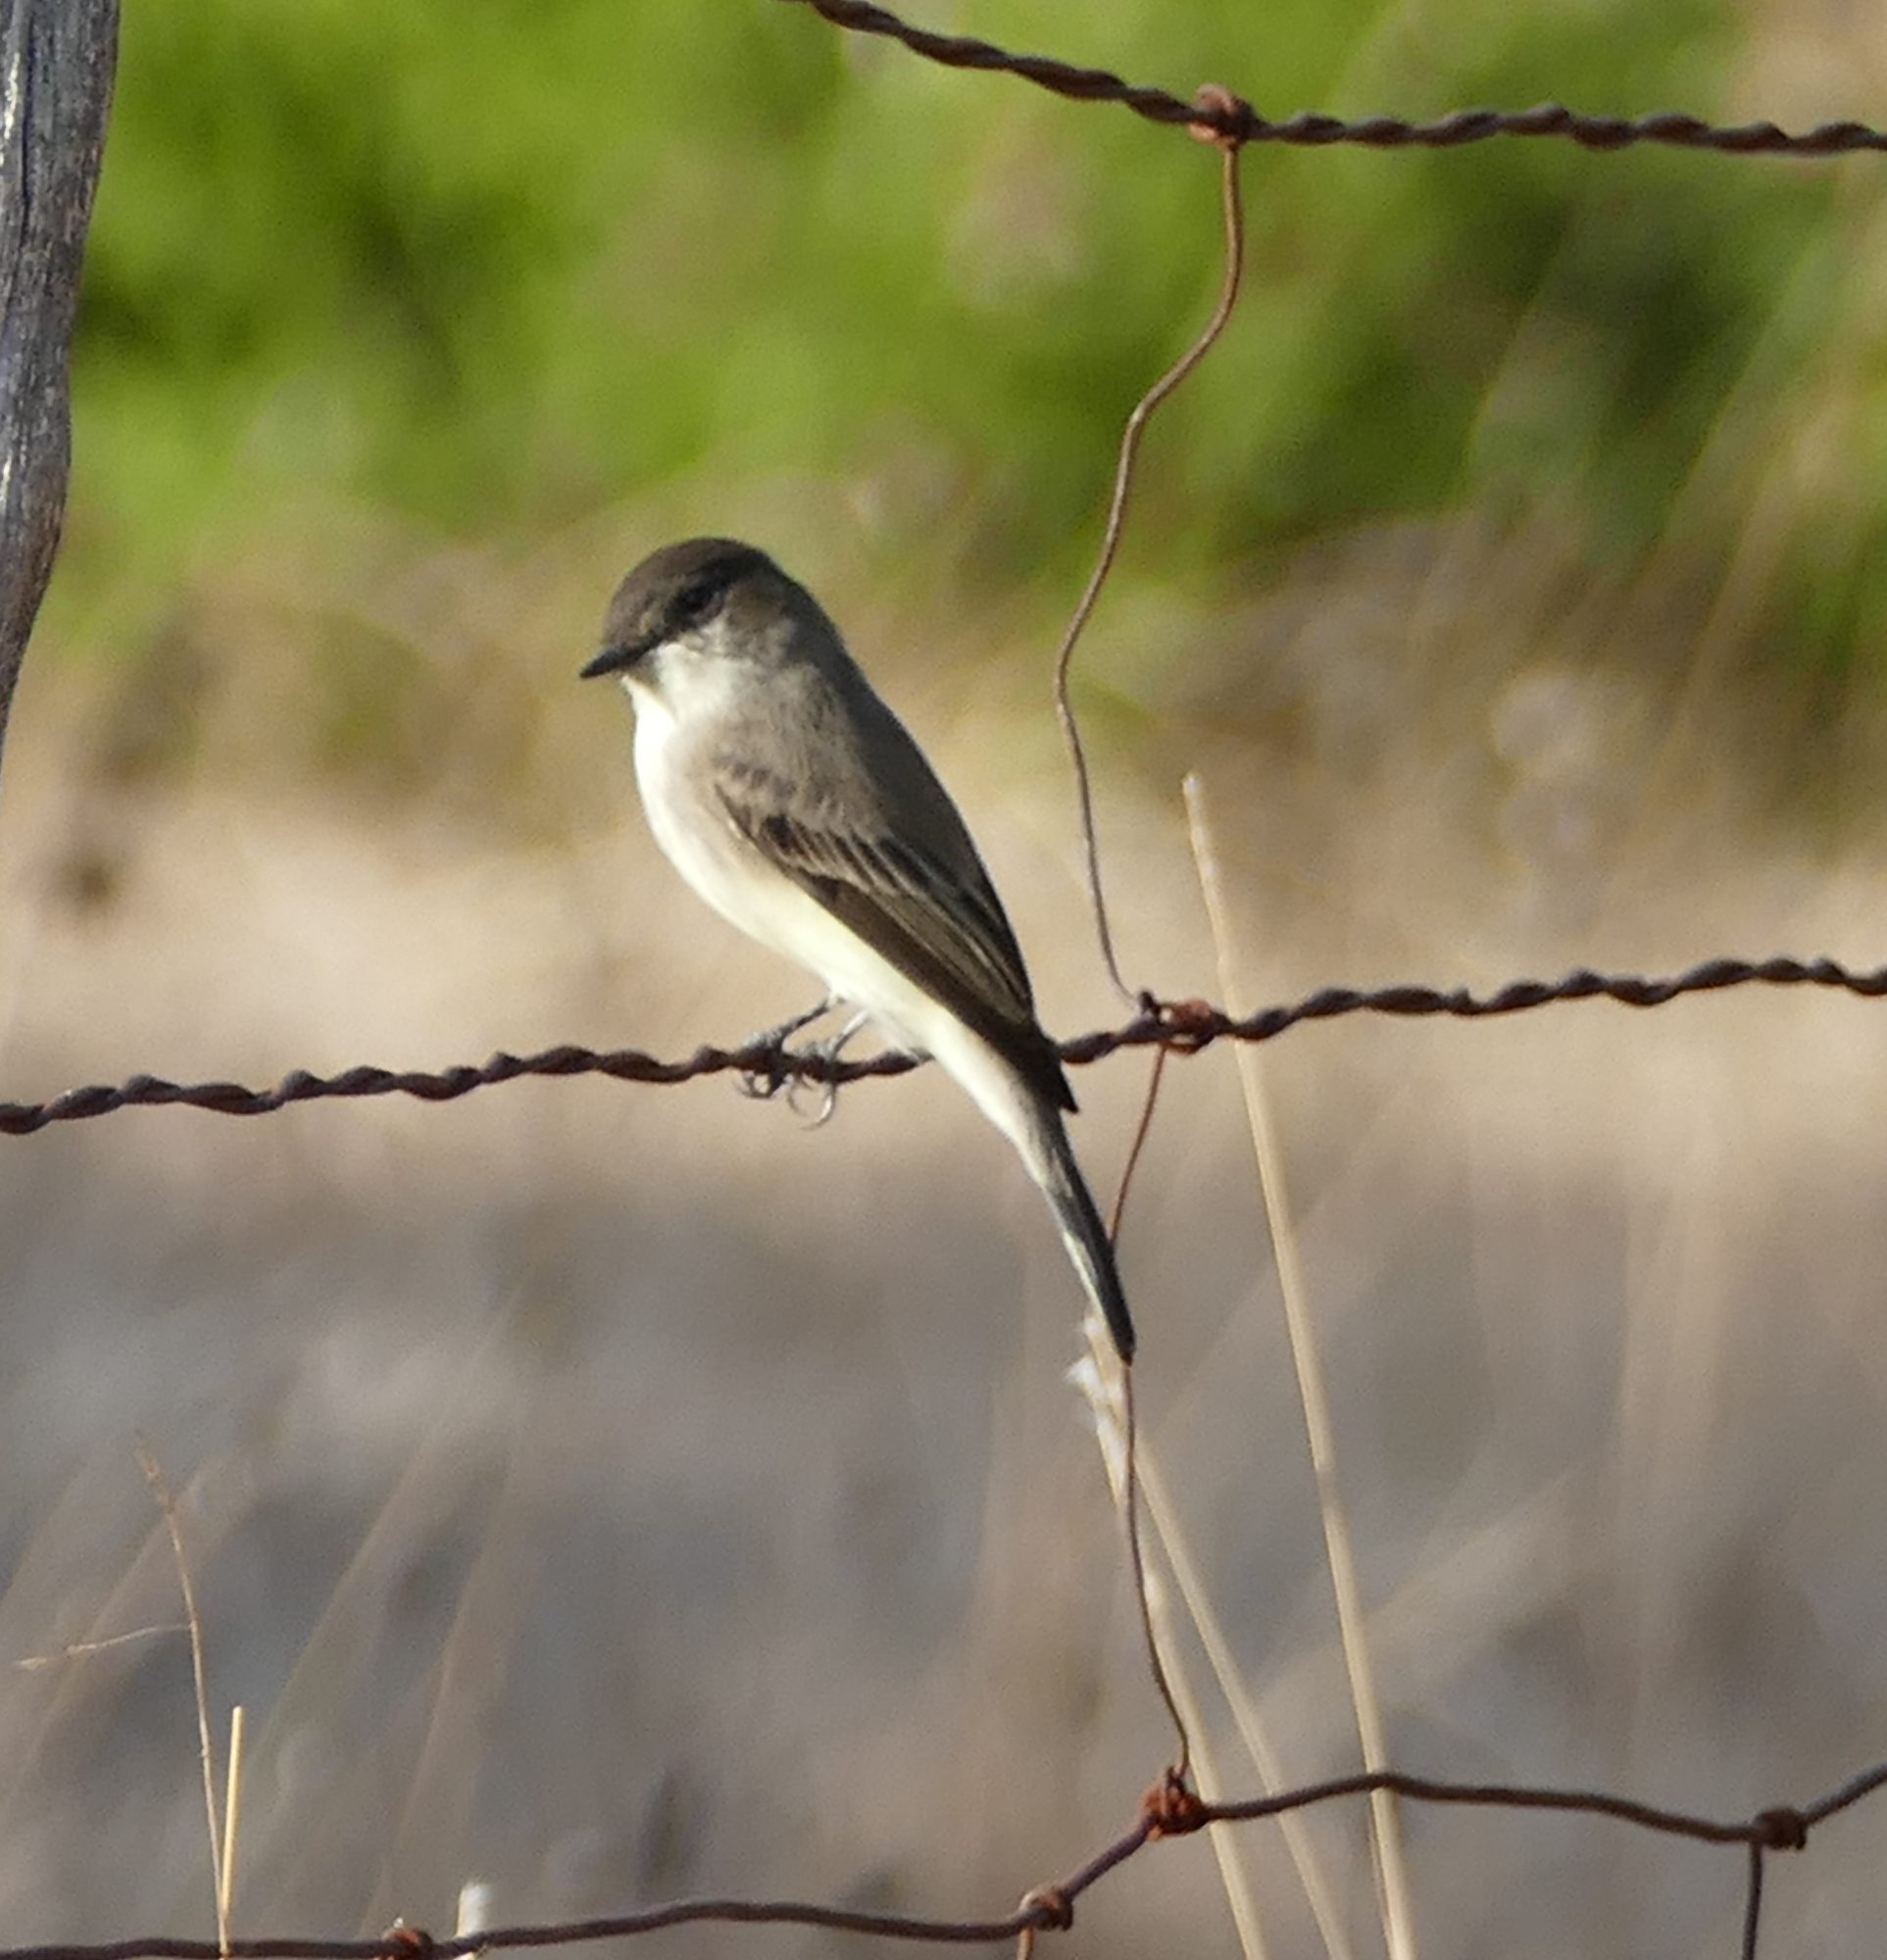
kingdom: Animalia
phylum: Chordata
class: Aves
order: Passeriformes
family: Tyrannidae
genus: Sayornis
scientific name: Sayornis phoebe
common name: Eastern phoebe
